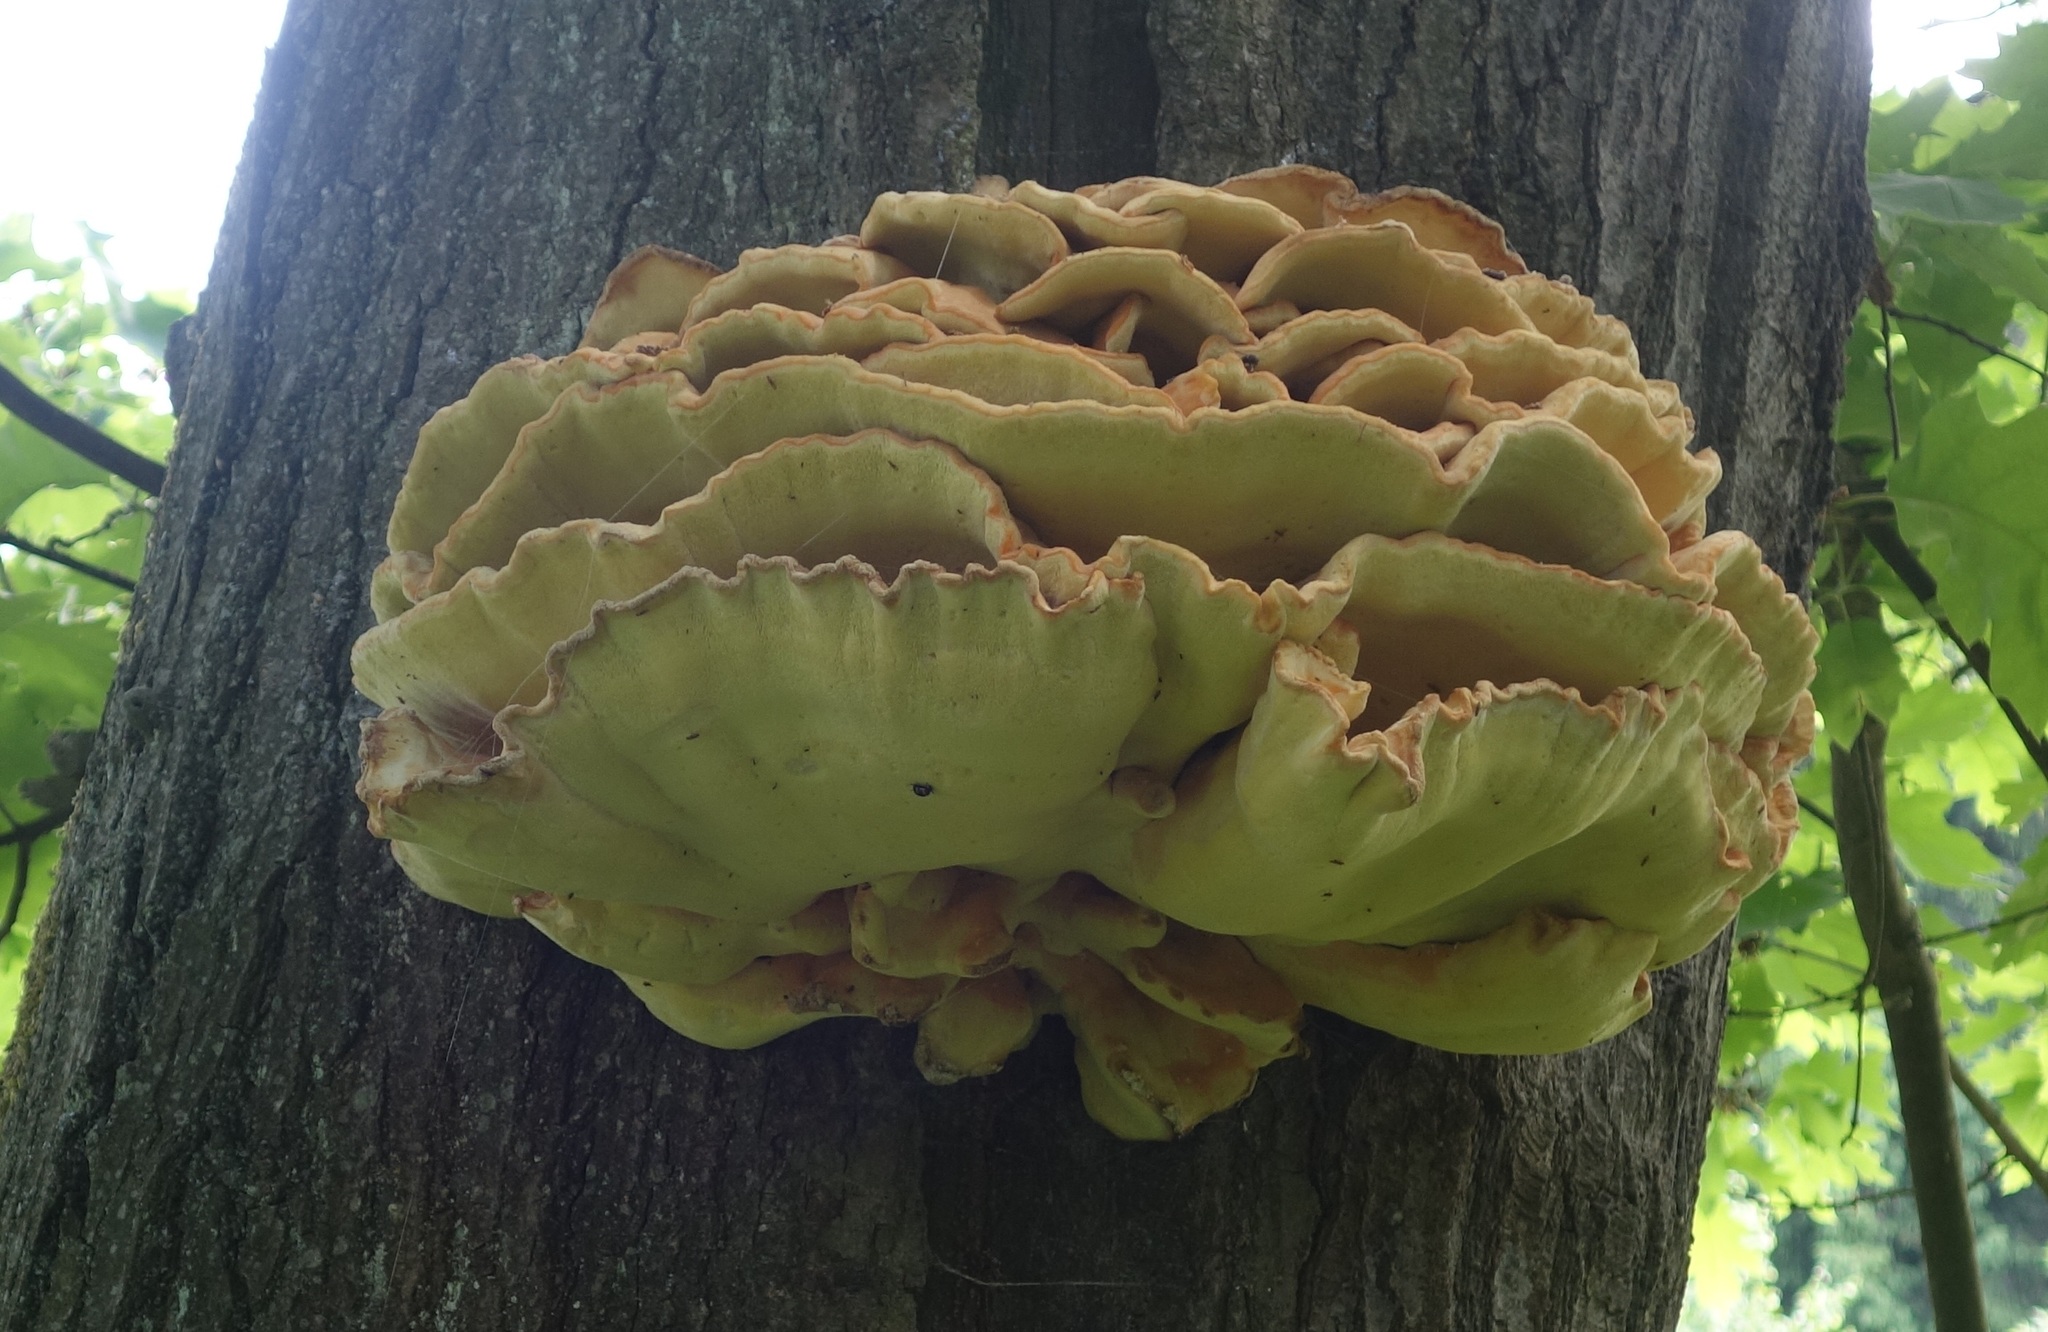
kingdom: Fungi
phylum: Basidiomycota
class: Agaricomycetes
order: Polyporales
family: Laetiporaceae
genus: Laetiporus
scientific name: Laetiporus sulphureus
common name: Chicken of the woods
